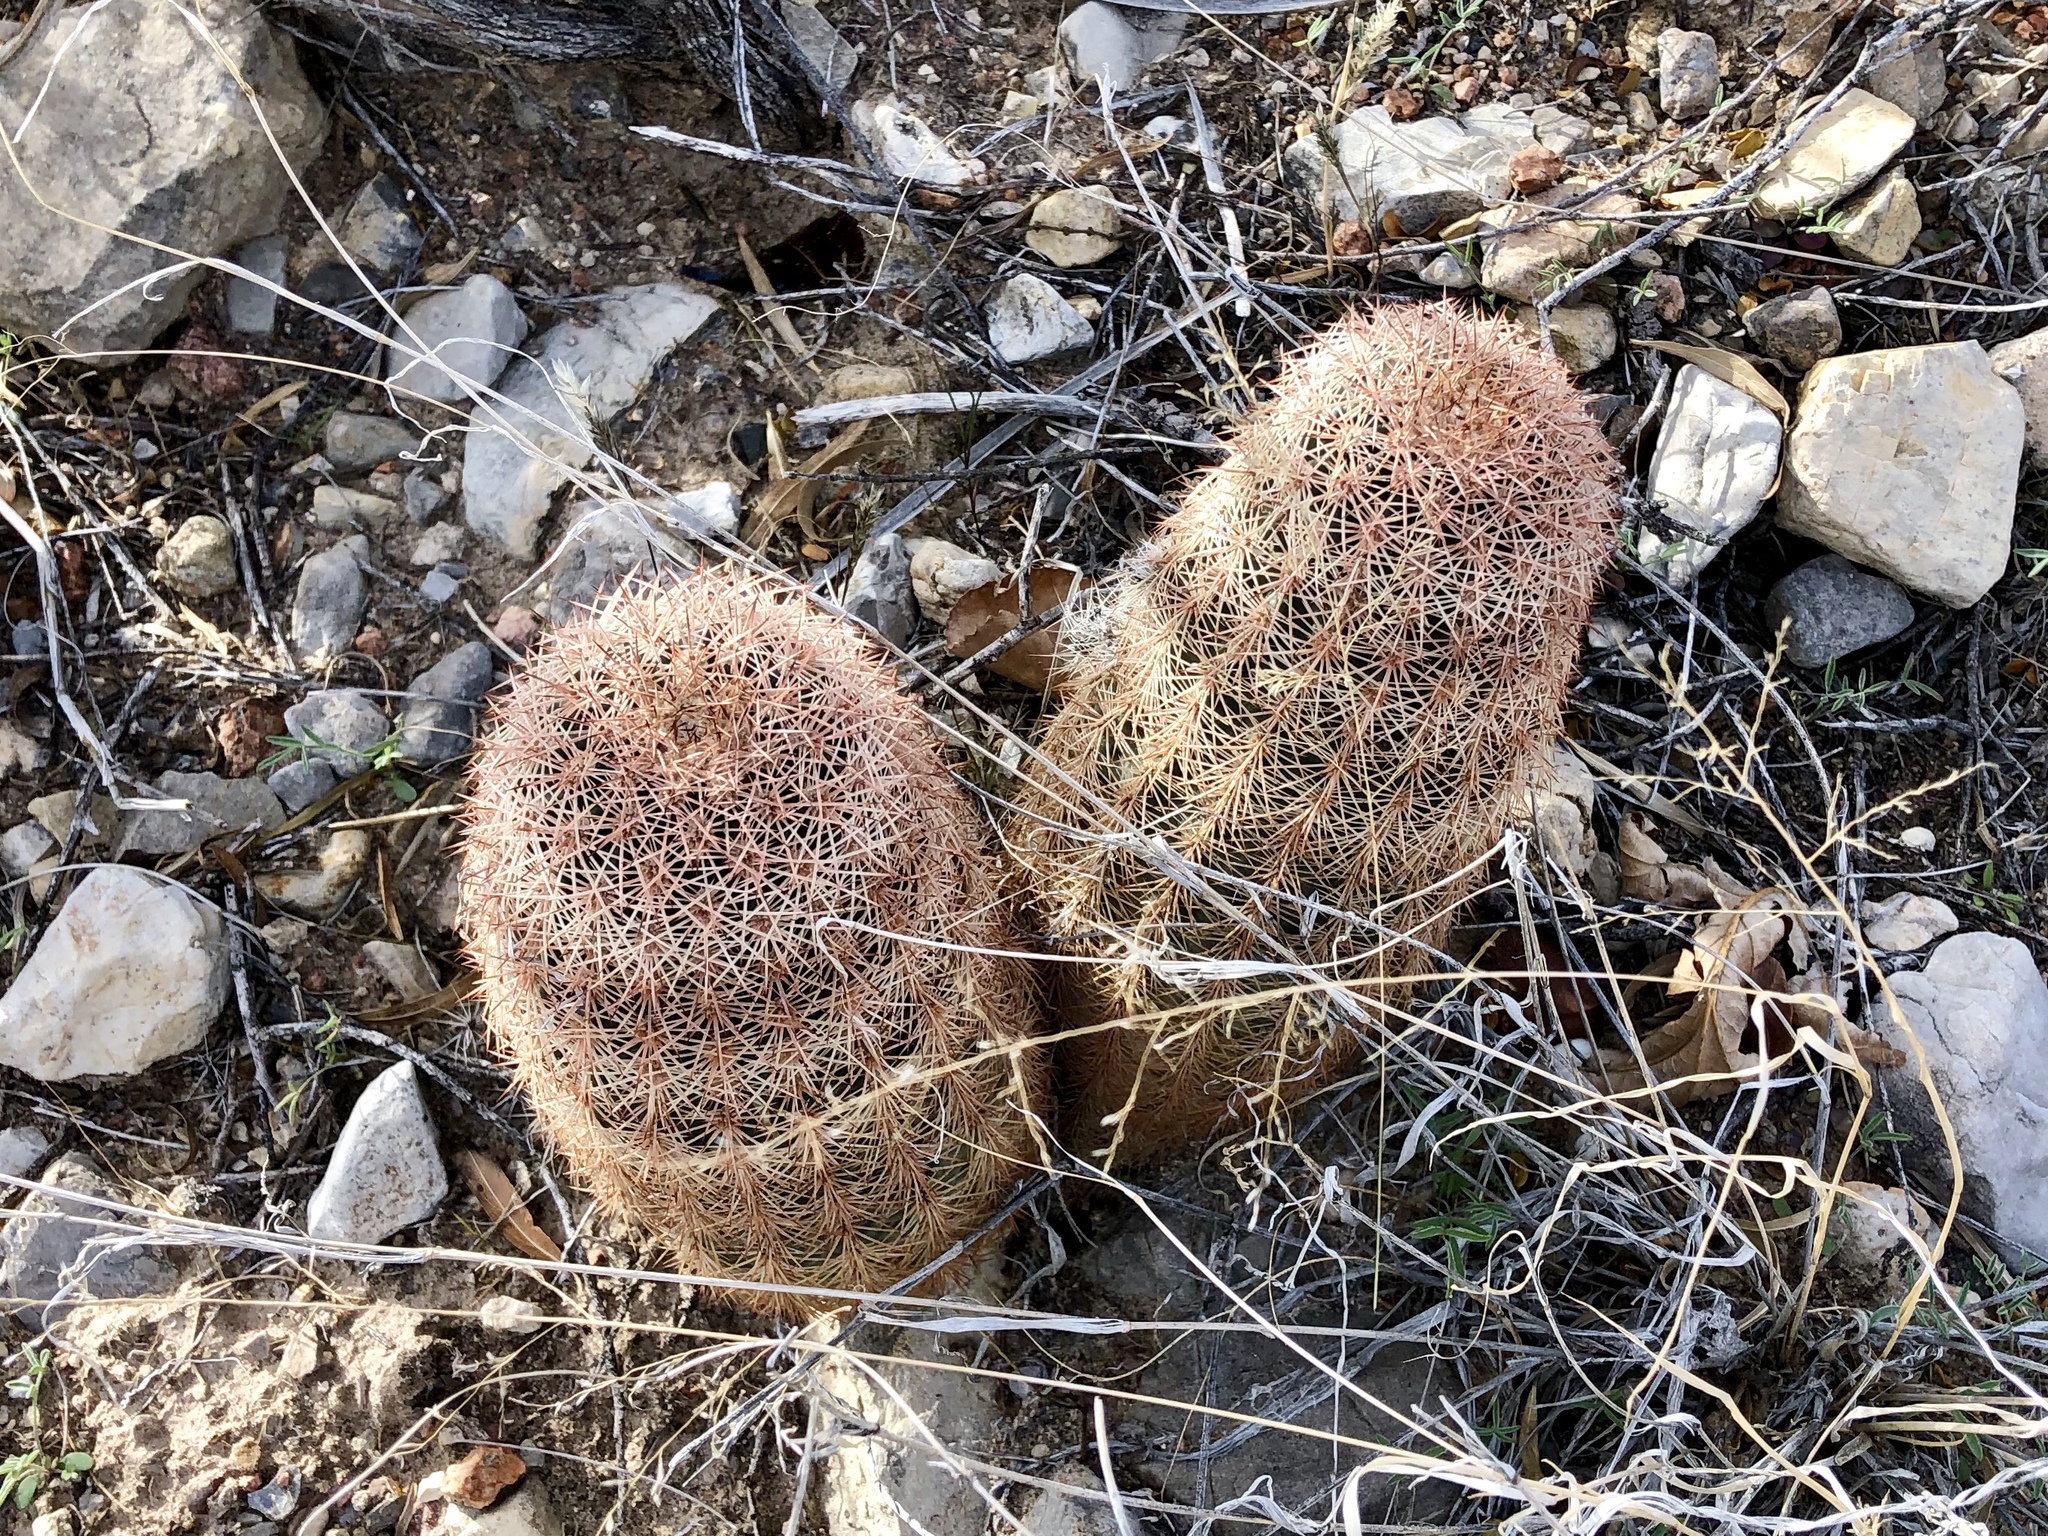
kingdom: Plantae
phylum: Tracheophyta
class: Magnoliopsida
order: Caryophyllales
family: Cactaceae
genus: Echinocereus
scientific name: Echinocereus dasyacanthus
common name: Spiny hedgehog cactus
